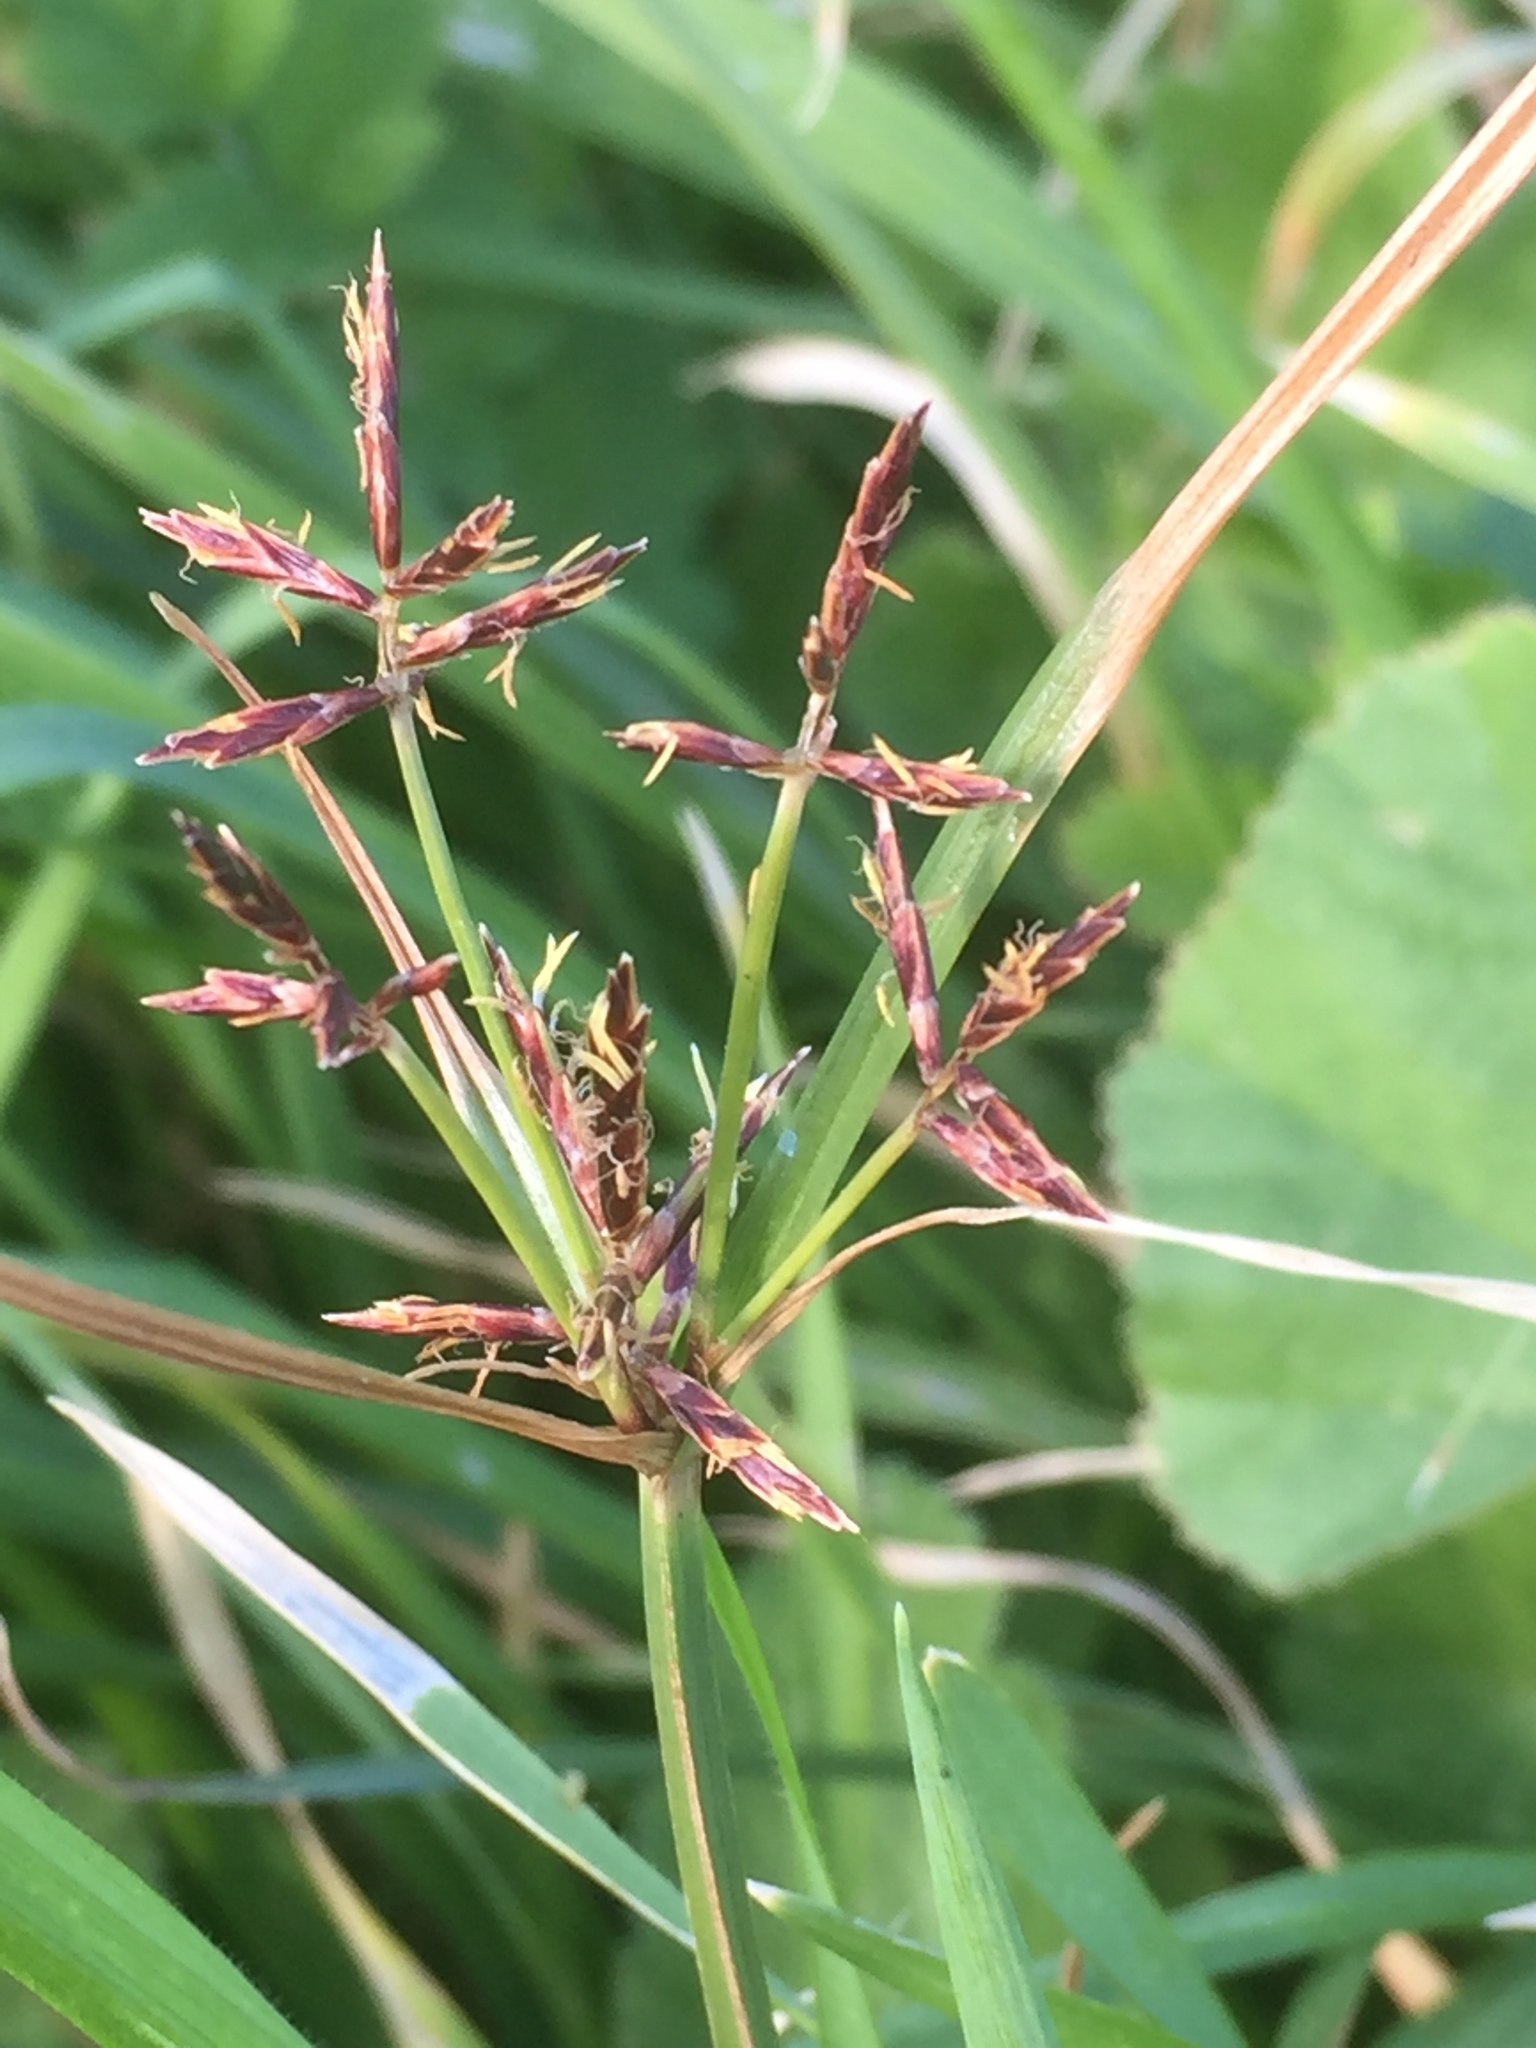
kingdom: Plantae
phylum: Tracheophyta
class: Liliopsida
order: Poales
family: Cyperaceae
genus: Cyperus
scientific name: Cyperus rotundus
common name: Nutgrass
